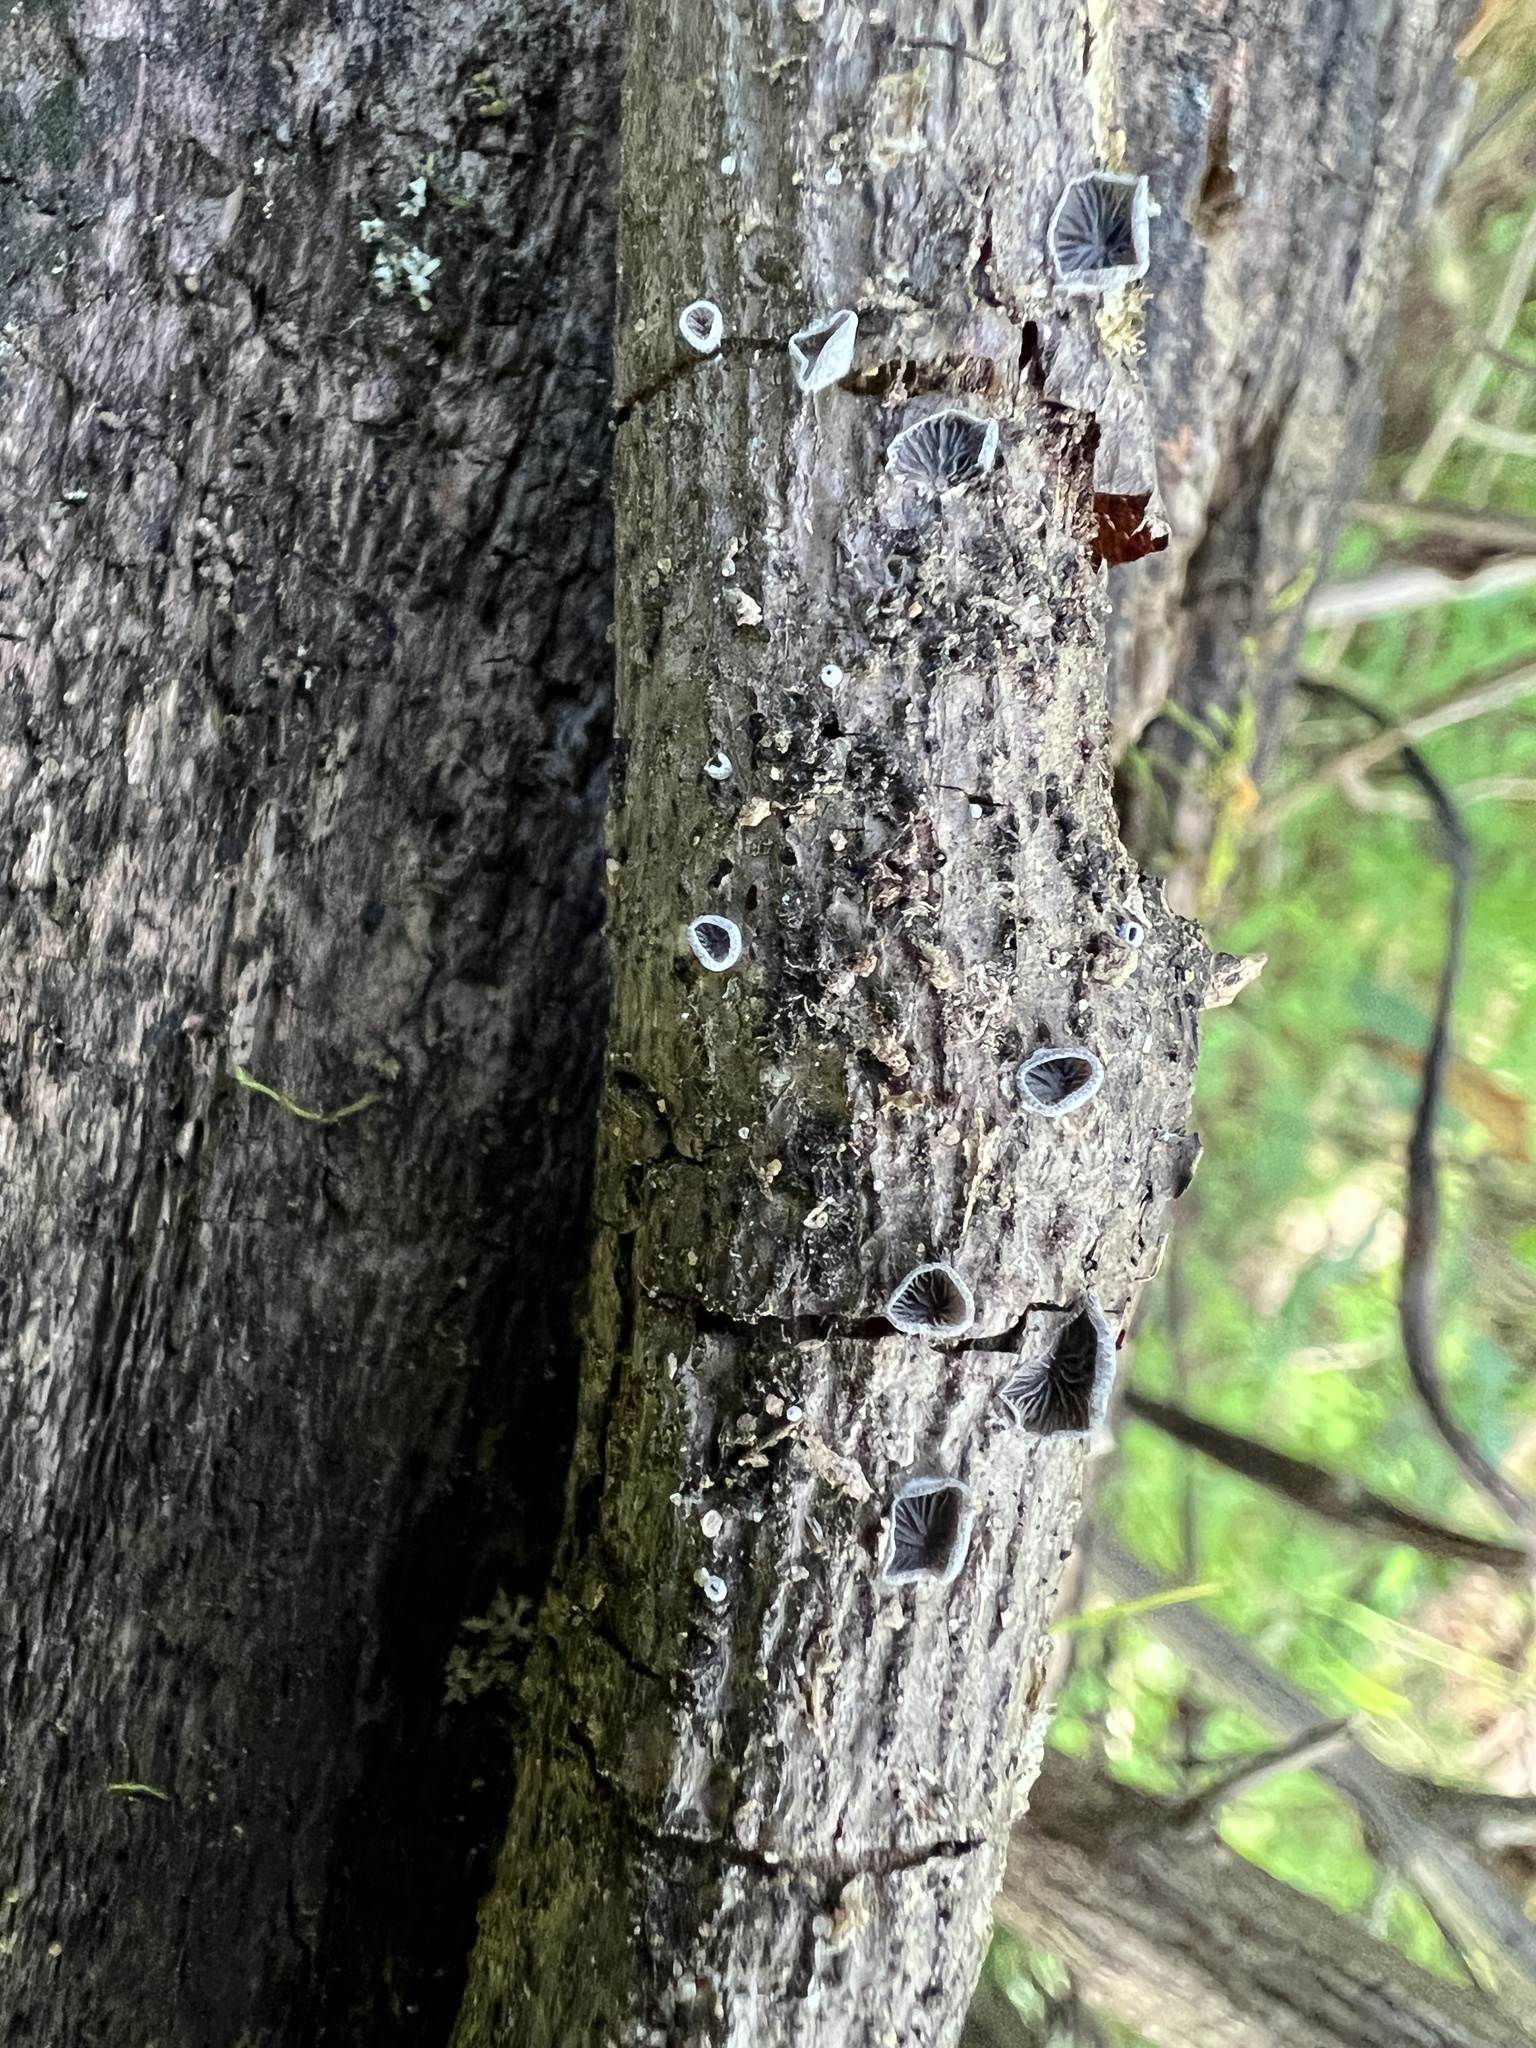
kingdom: Fungi
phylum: Basidiomycota
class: Agaricomycetes
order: Agaricales
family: Pleurotaceae
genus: Resupinatus
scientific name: Resupinatus applicatus
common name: Smoked oysterling
